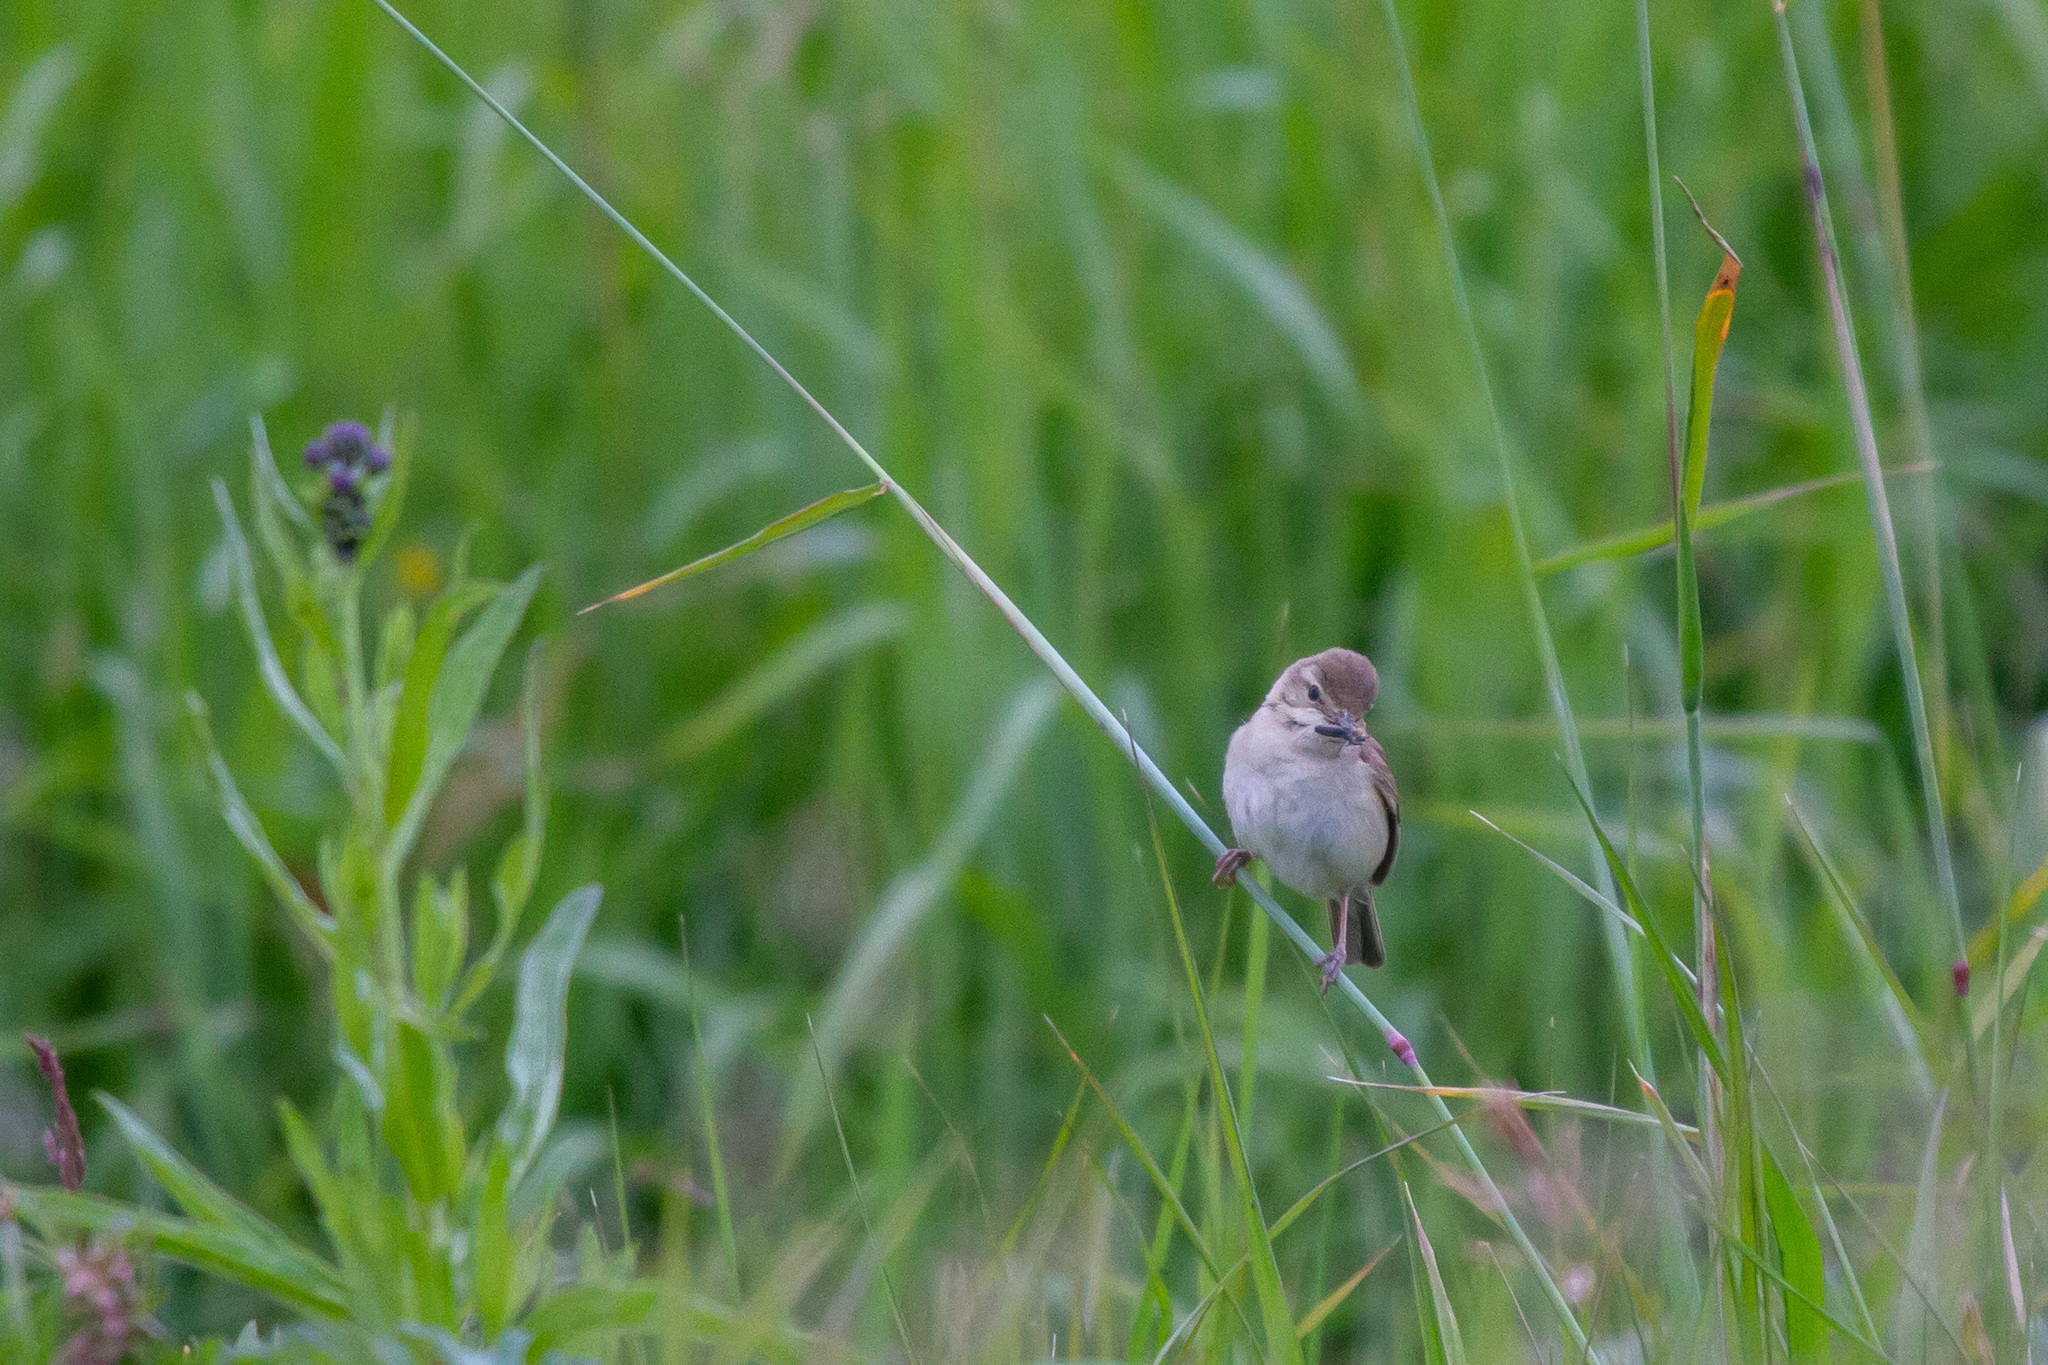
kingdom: Animalia
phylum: Chordata
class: Aves
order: Passeriformes
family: Acrocephalidae
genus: Iduna
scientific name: Iduna caligata
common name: Booted warbler
